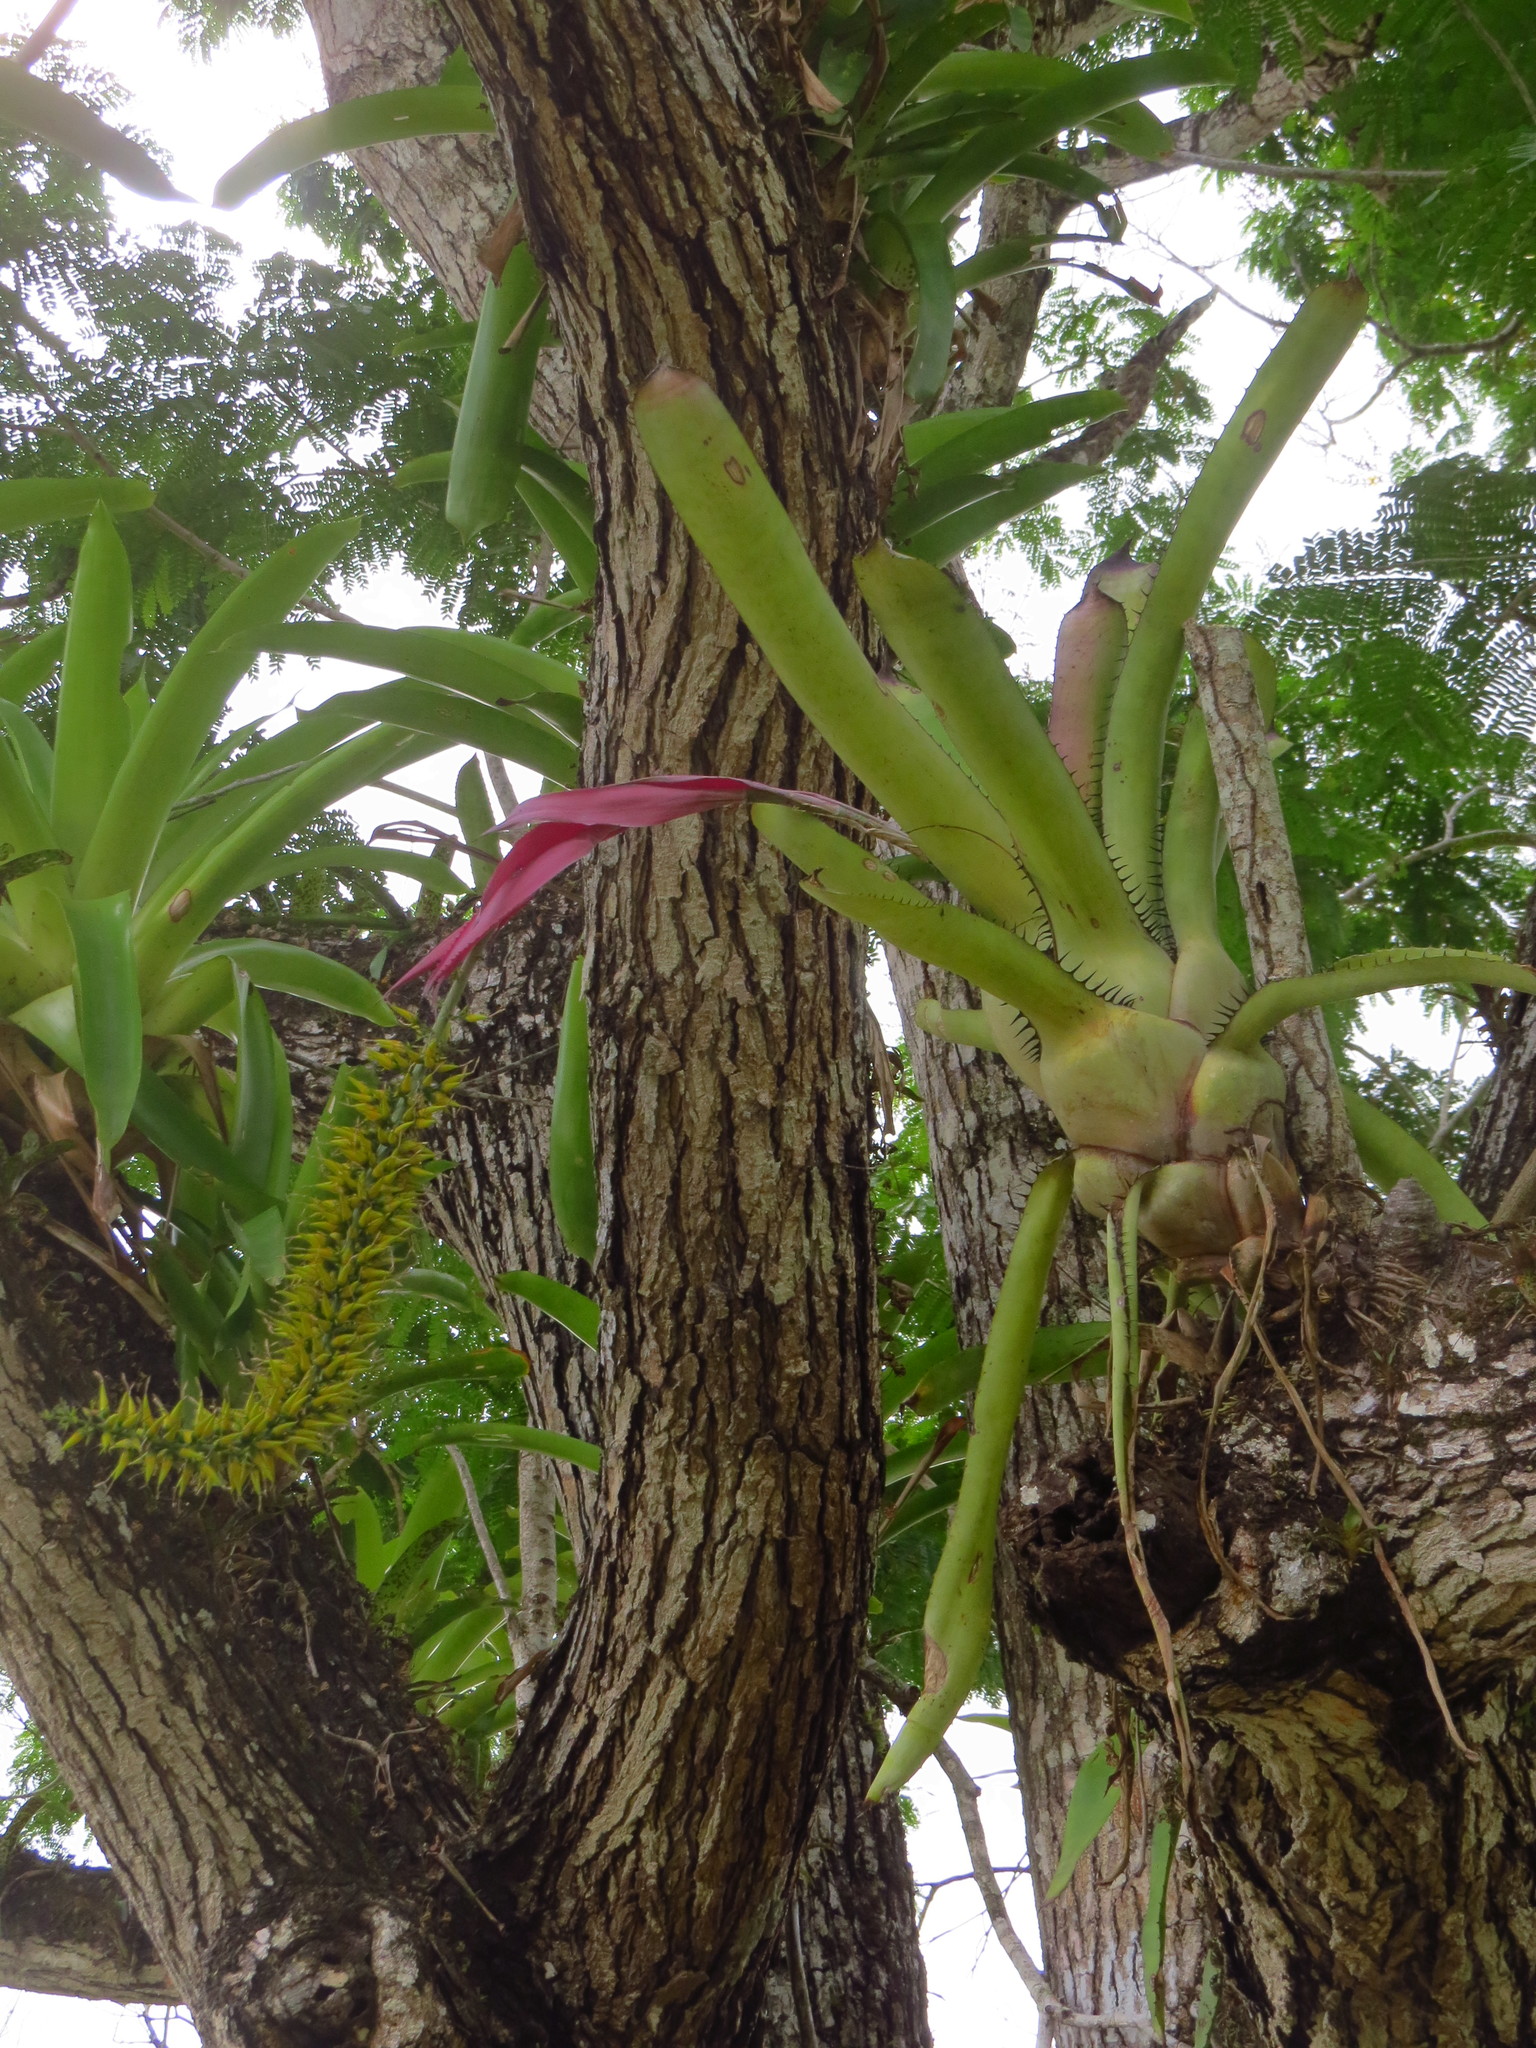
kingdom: Plantae
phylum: Tracheophyta
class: Liliopsida
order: Poales
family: Bromeliaceae
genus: Aechmea
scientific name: Aechmea setigera
